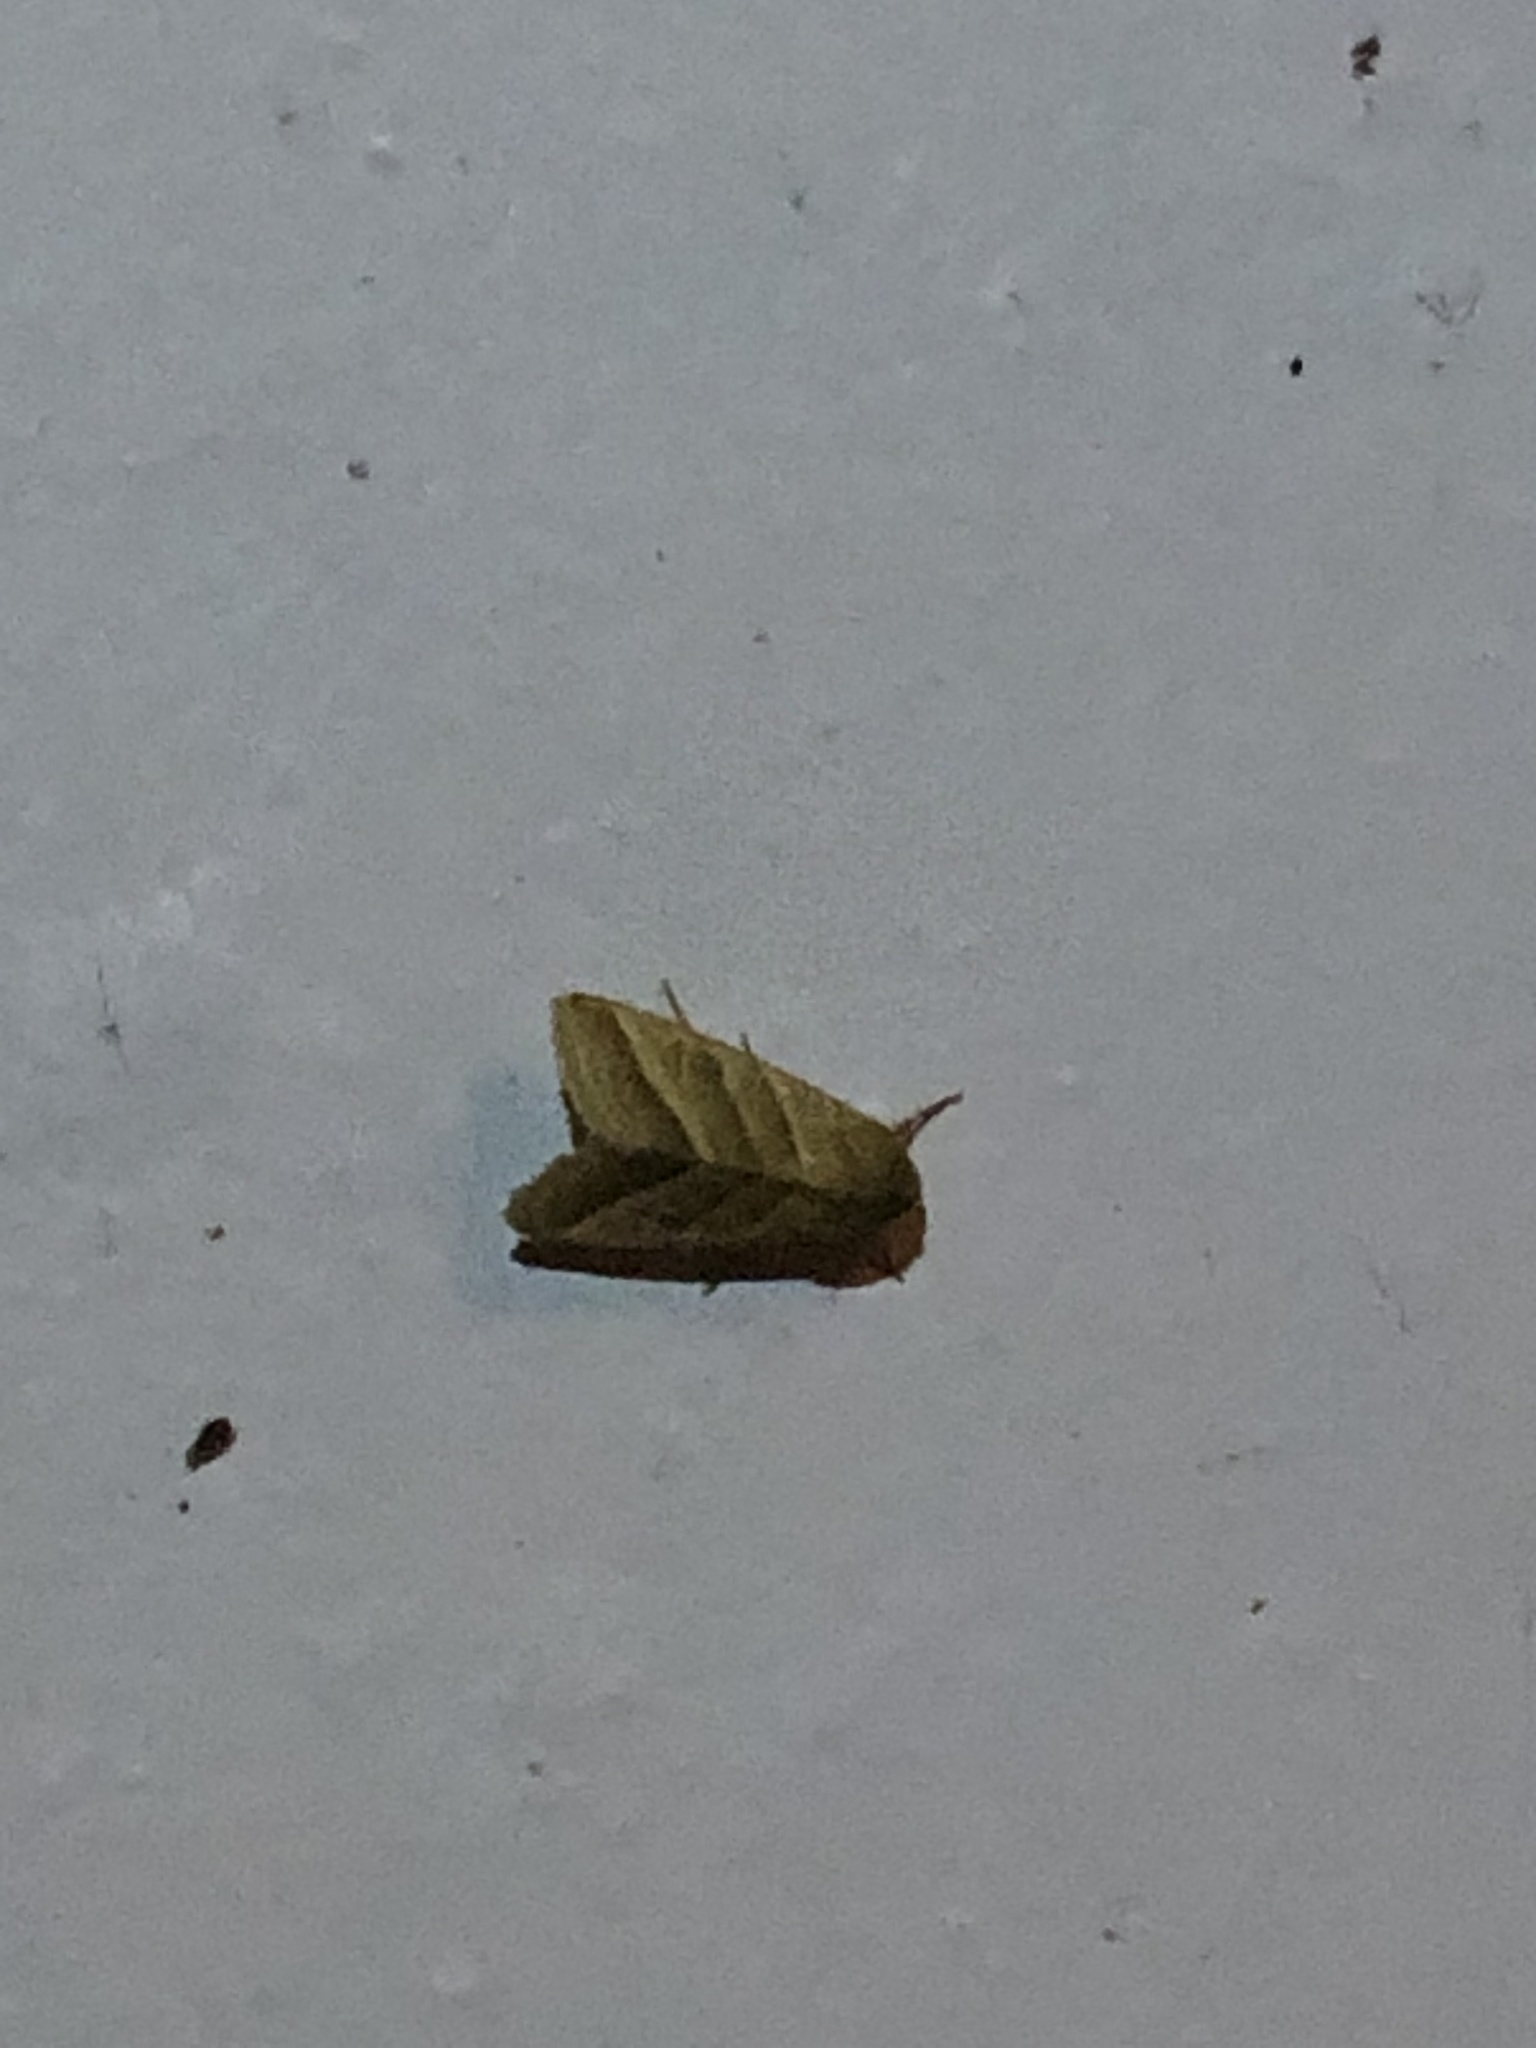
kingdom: Animalia
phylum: Arthropoda
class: Insecta
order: Lepidoptera
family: Noctuidae
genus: Chloridea
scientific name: Chloridea virescens
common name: Tobacco budworm
